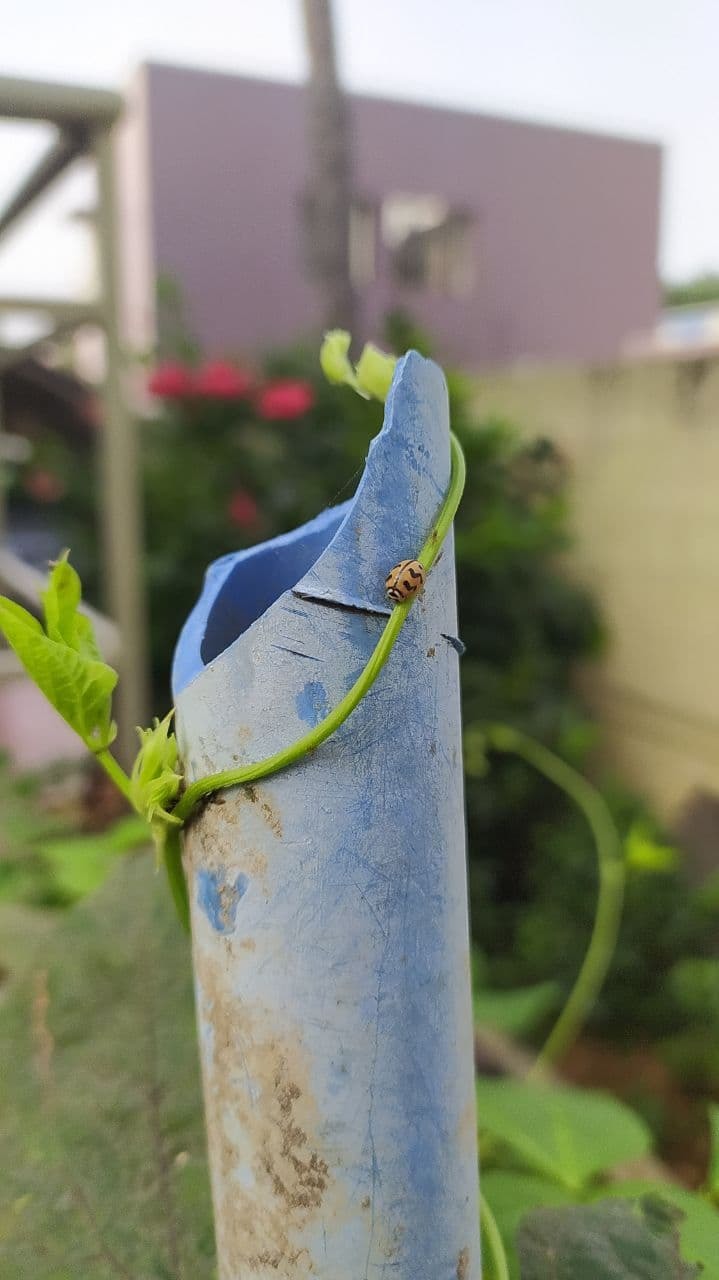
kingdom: Animalia
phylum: Arthropoda
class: Insecta
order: Coleoptera
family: Coccinellidae
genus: Cheilomenes
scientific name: Cheilomenes sexmaculata
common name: Ladybird beetle
